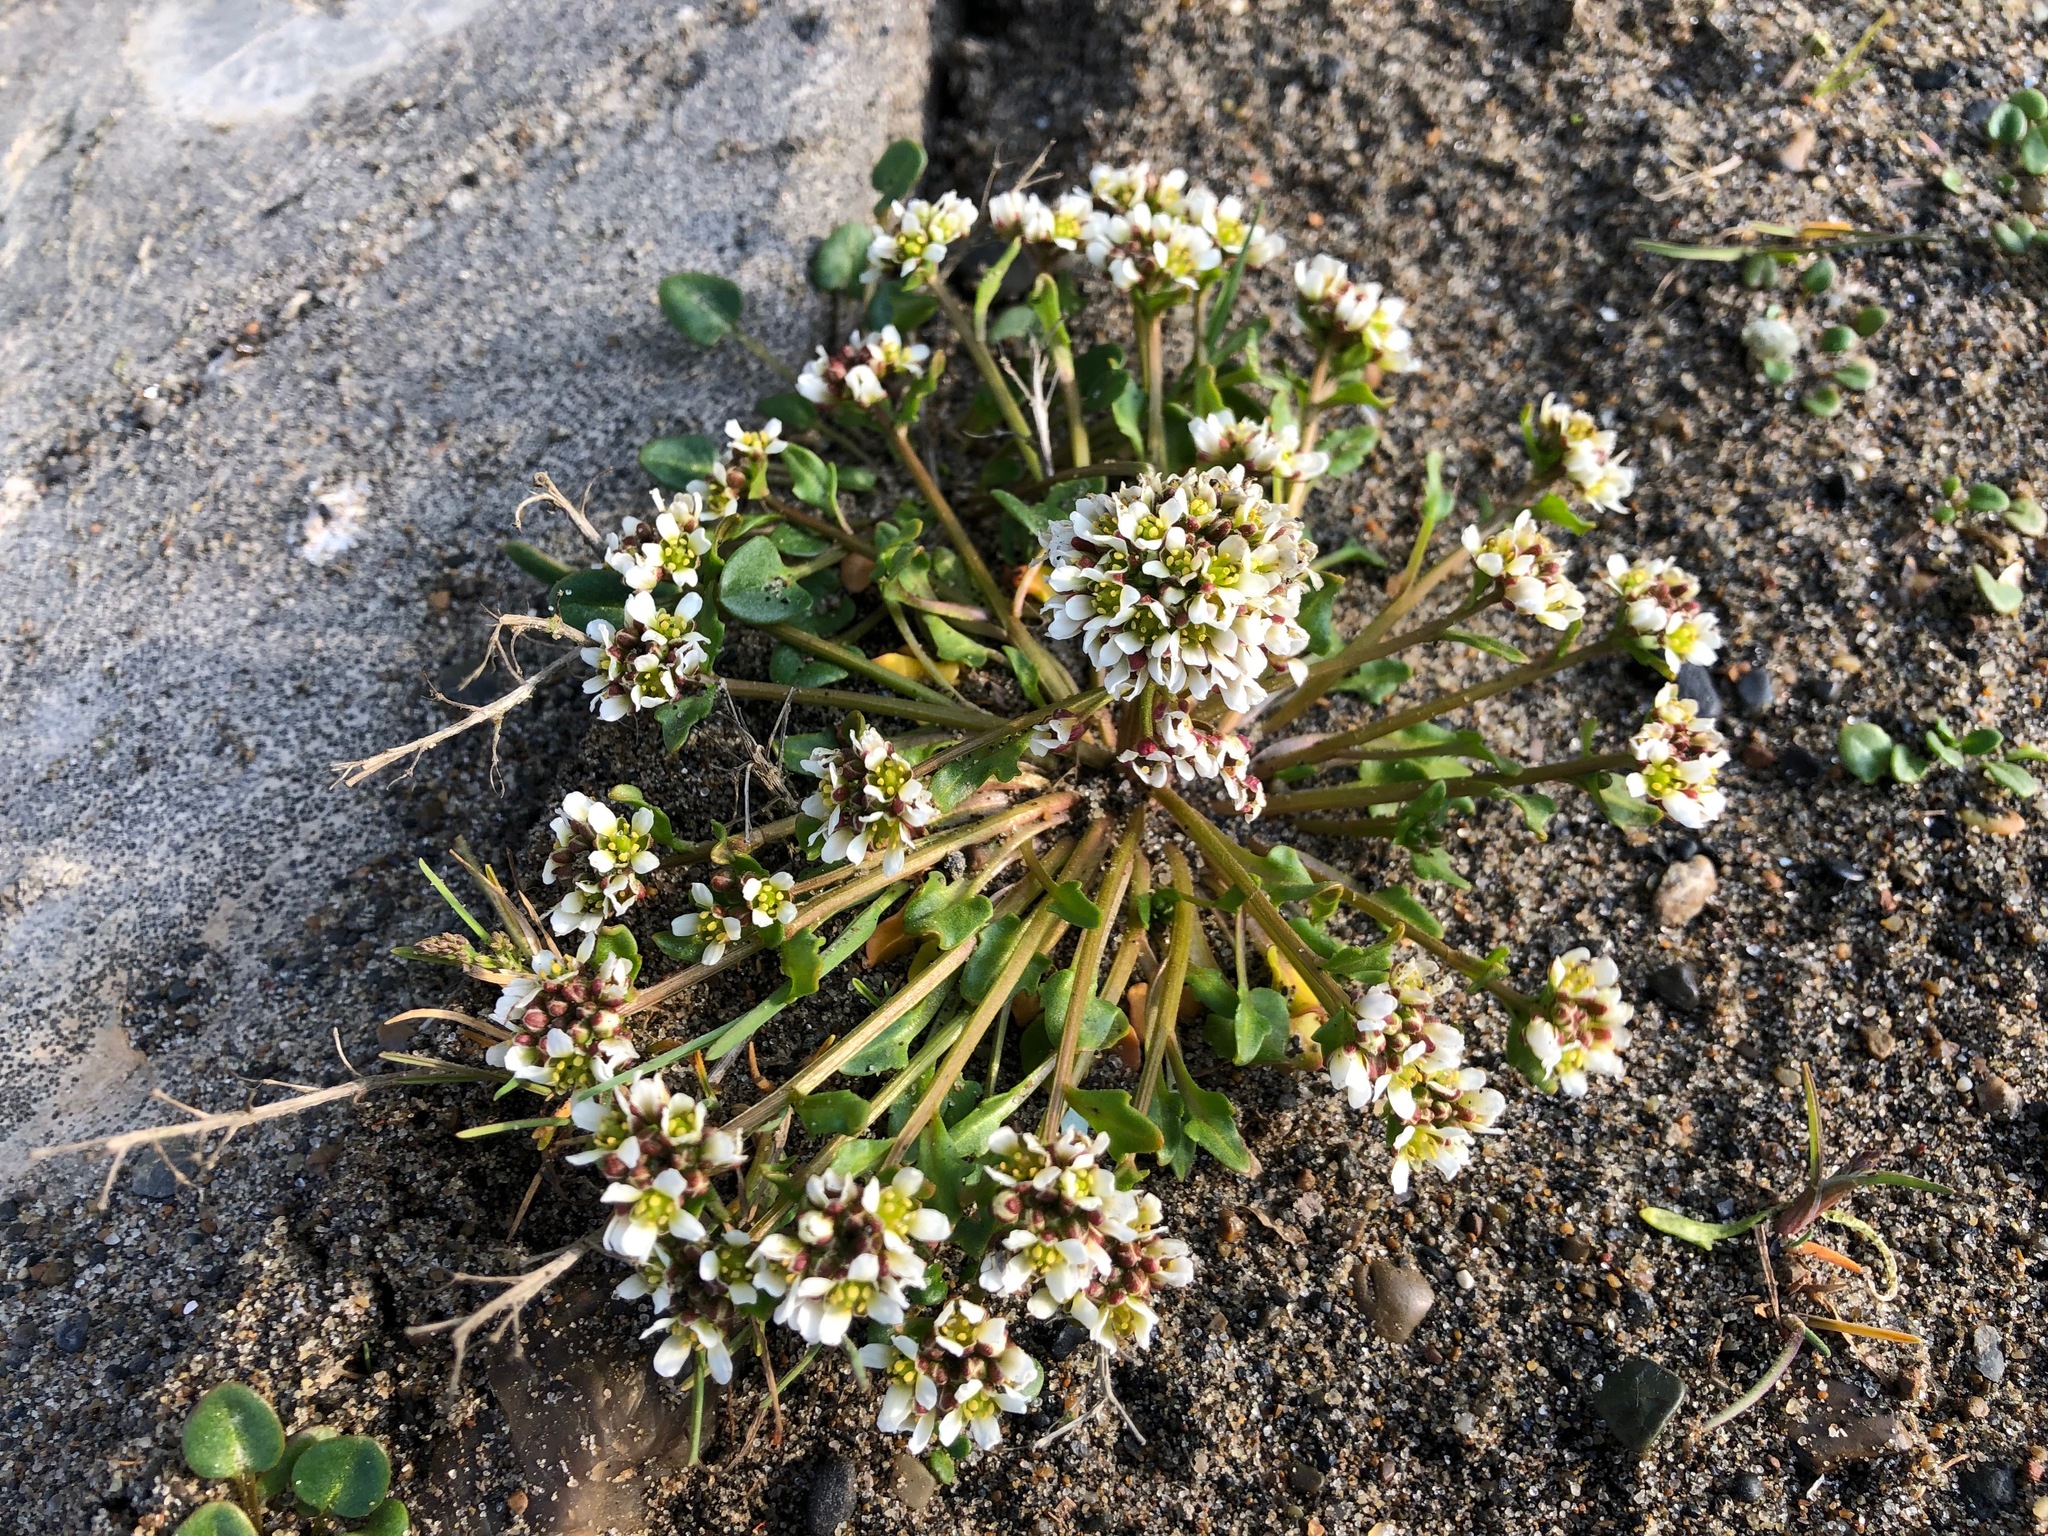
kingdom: Plantae
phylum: Tracheophyta
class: Magnoliopsida
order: Brassicales
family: Brassicaceae
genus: Cochlearia
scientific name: Cochlearia groenlandica
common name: Danish scurvygrass
